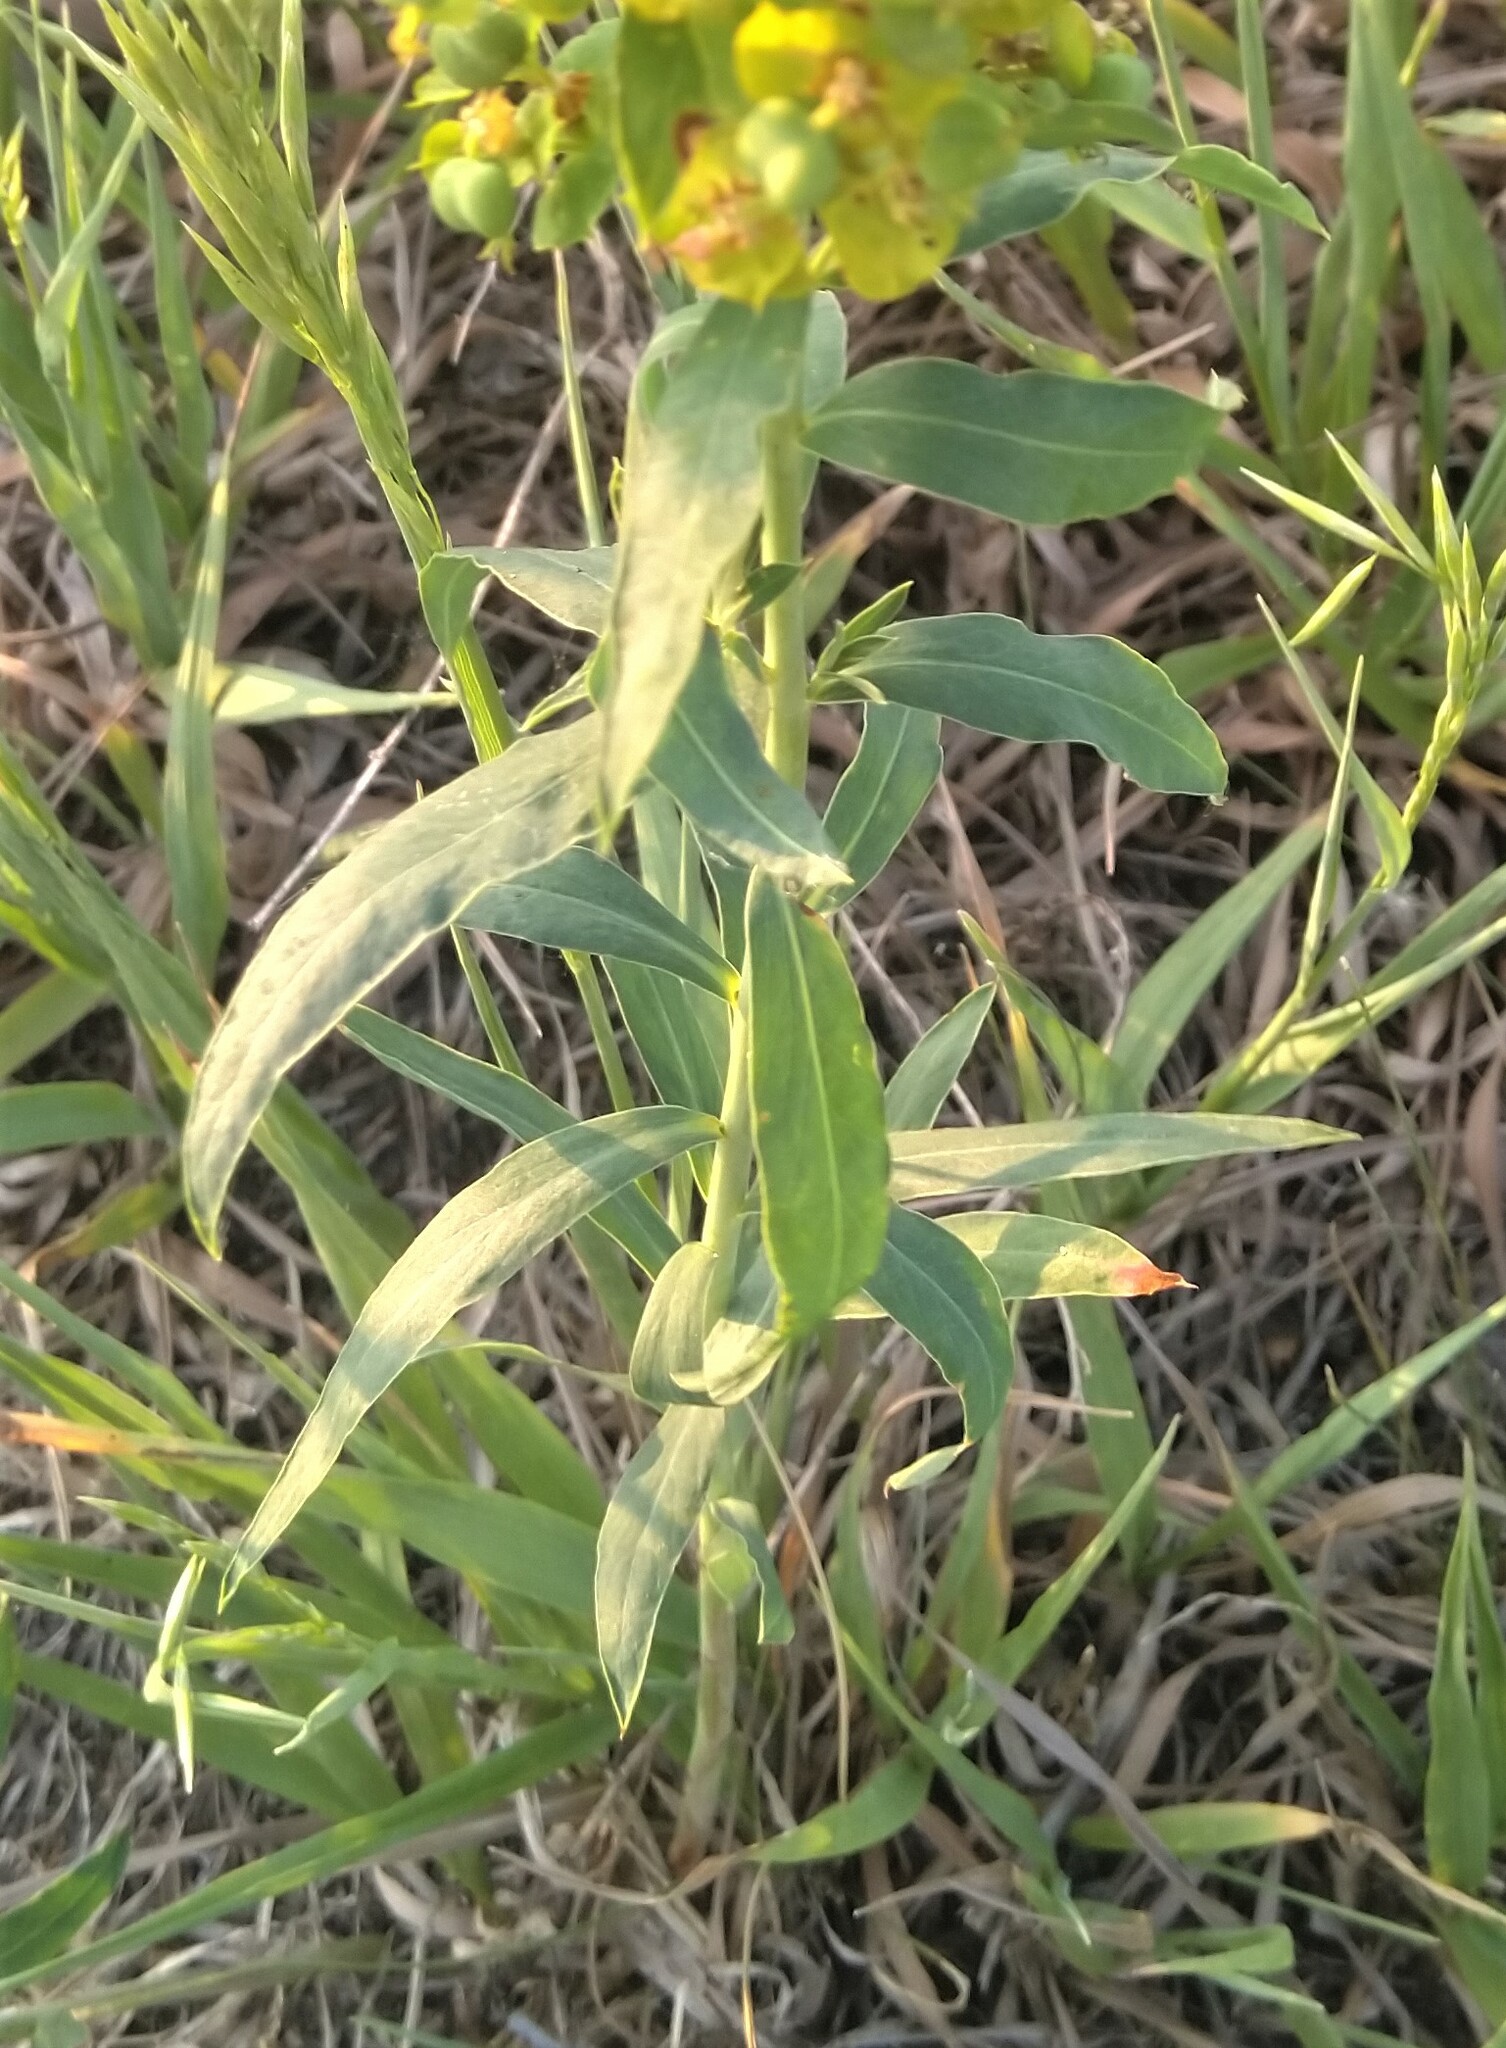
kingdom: Plantae
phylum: Tracheophyta
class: Magnoliopsida
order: Malpighiales
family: Euphorbiaceae
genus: Euphorbia
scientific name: Euphorbia virgata
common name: Leafy spurge
